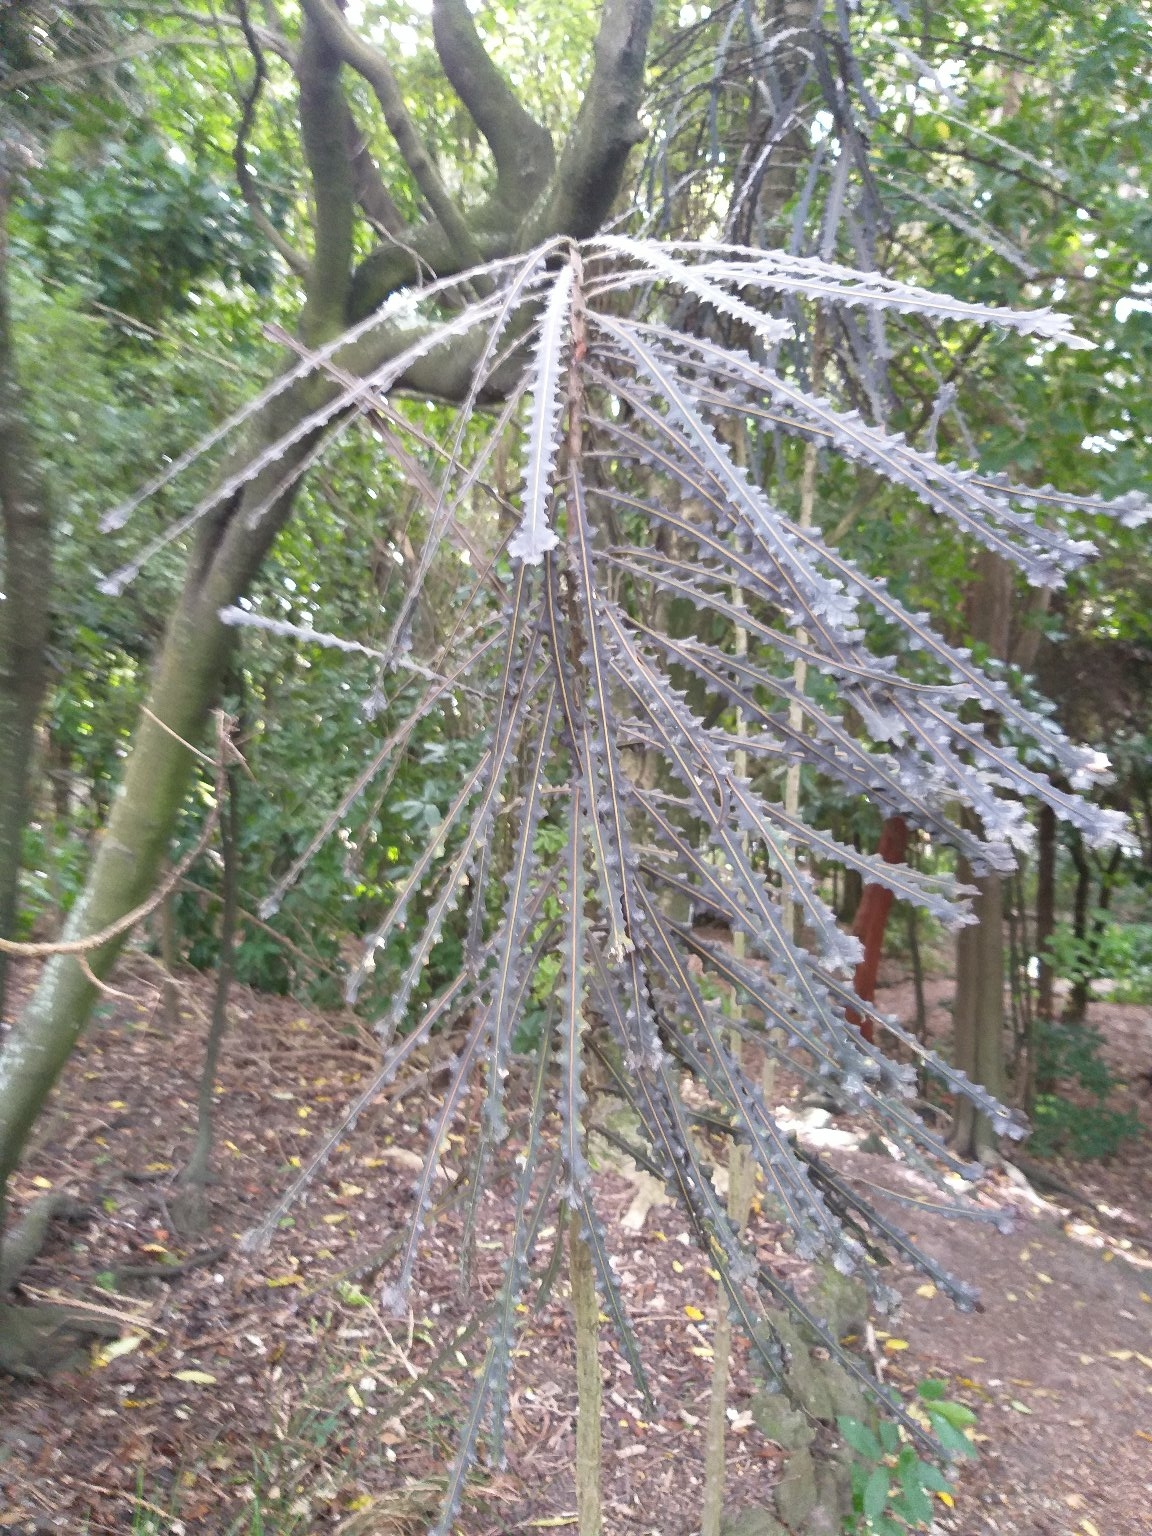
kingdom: Plantae
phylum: Tracheophyta
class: Magnoliopsida
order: Apiales
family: Araliaceae
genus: Pseudopanax
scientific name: Pseudopanax ferox
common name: Fierce lancewood
